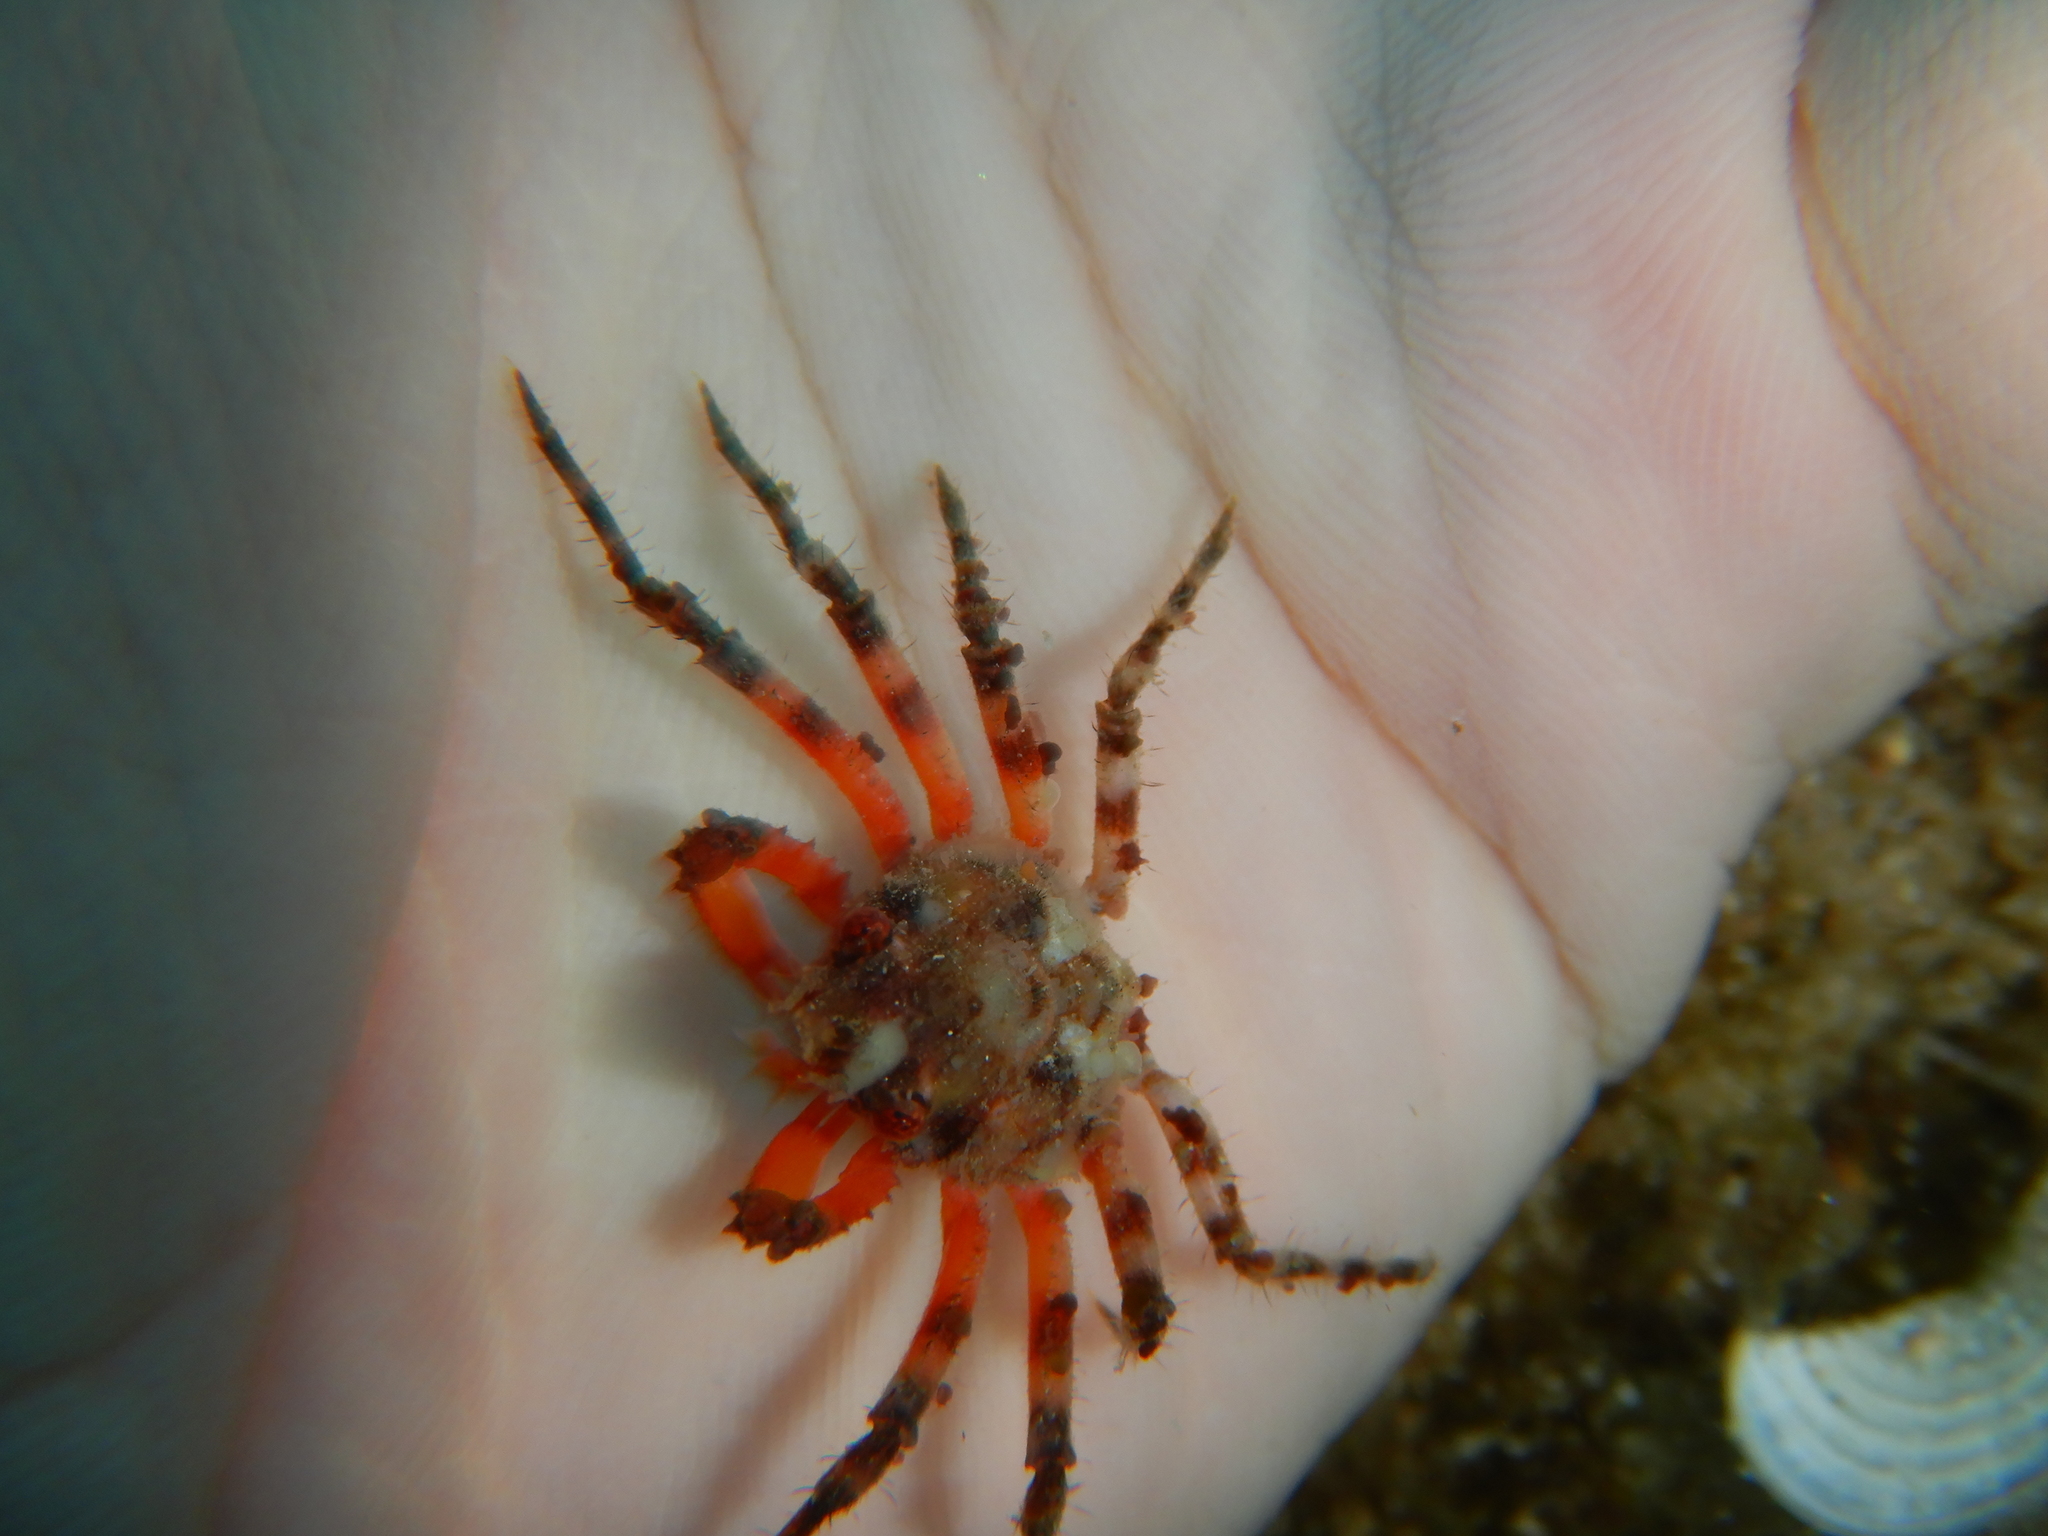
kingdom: Animalia
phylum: Arthropoda
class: Malacostraca
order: Decapoda
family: Epialtidae
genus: Herbstia
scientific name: Herbstia condyliata
